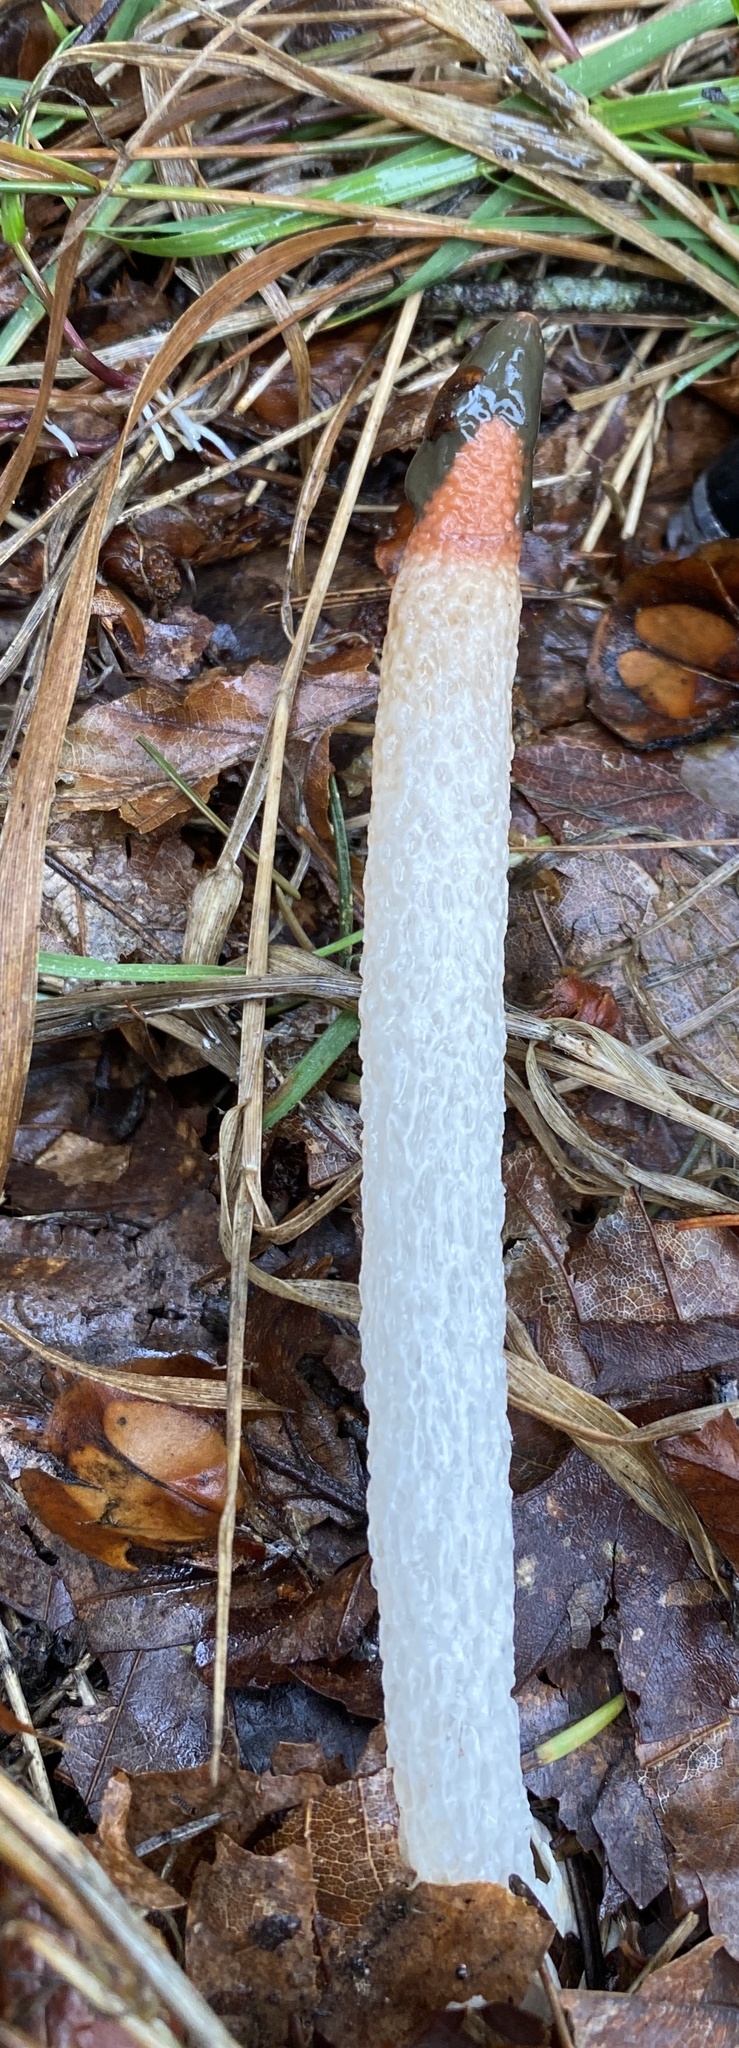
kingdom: Fungi
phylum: Basidiomycota
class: Agaricomycetes
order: Phallales
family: Phallaceae
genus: Mutinus
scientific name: Mutinus caninus
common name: Dog stinkhorn
